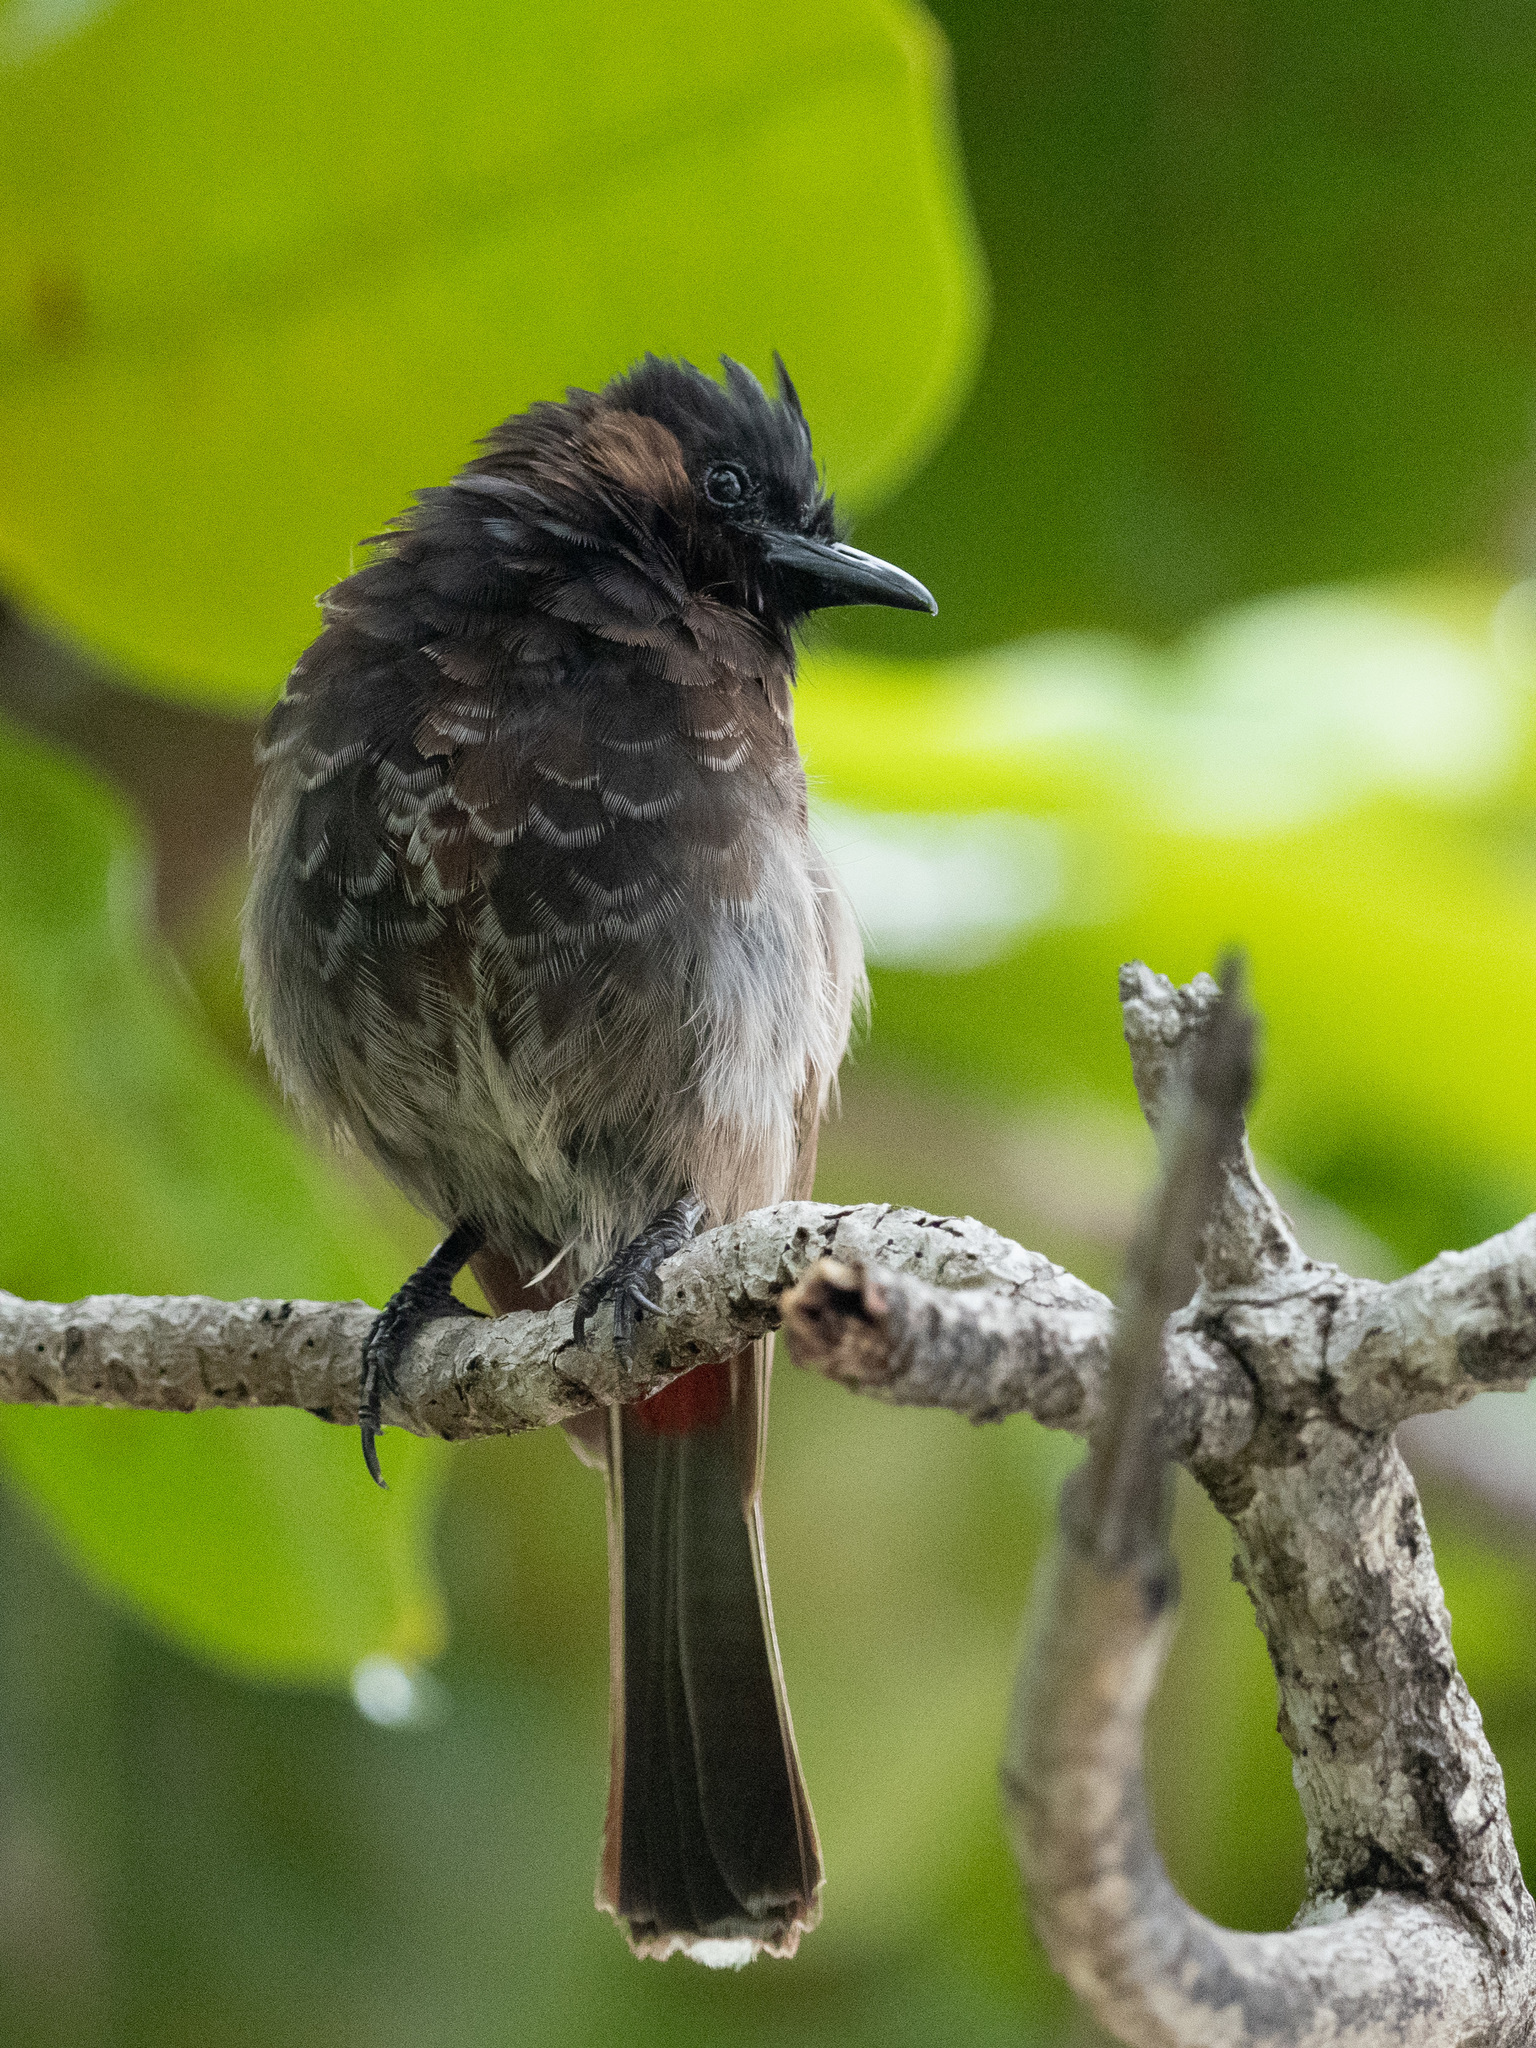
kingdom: Animalia
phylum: Chordata
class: Aves
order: Passeriformes
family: Pycnonotidae
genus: Pycnonotus
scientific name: Pycnonotus cafer
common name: Red-vented bulbul
